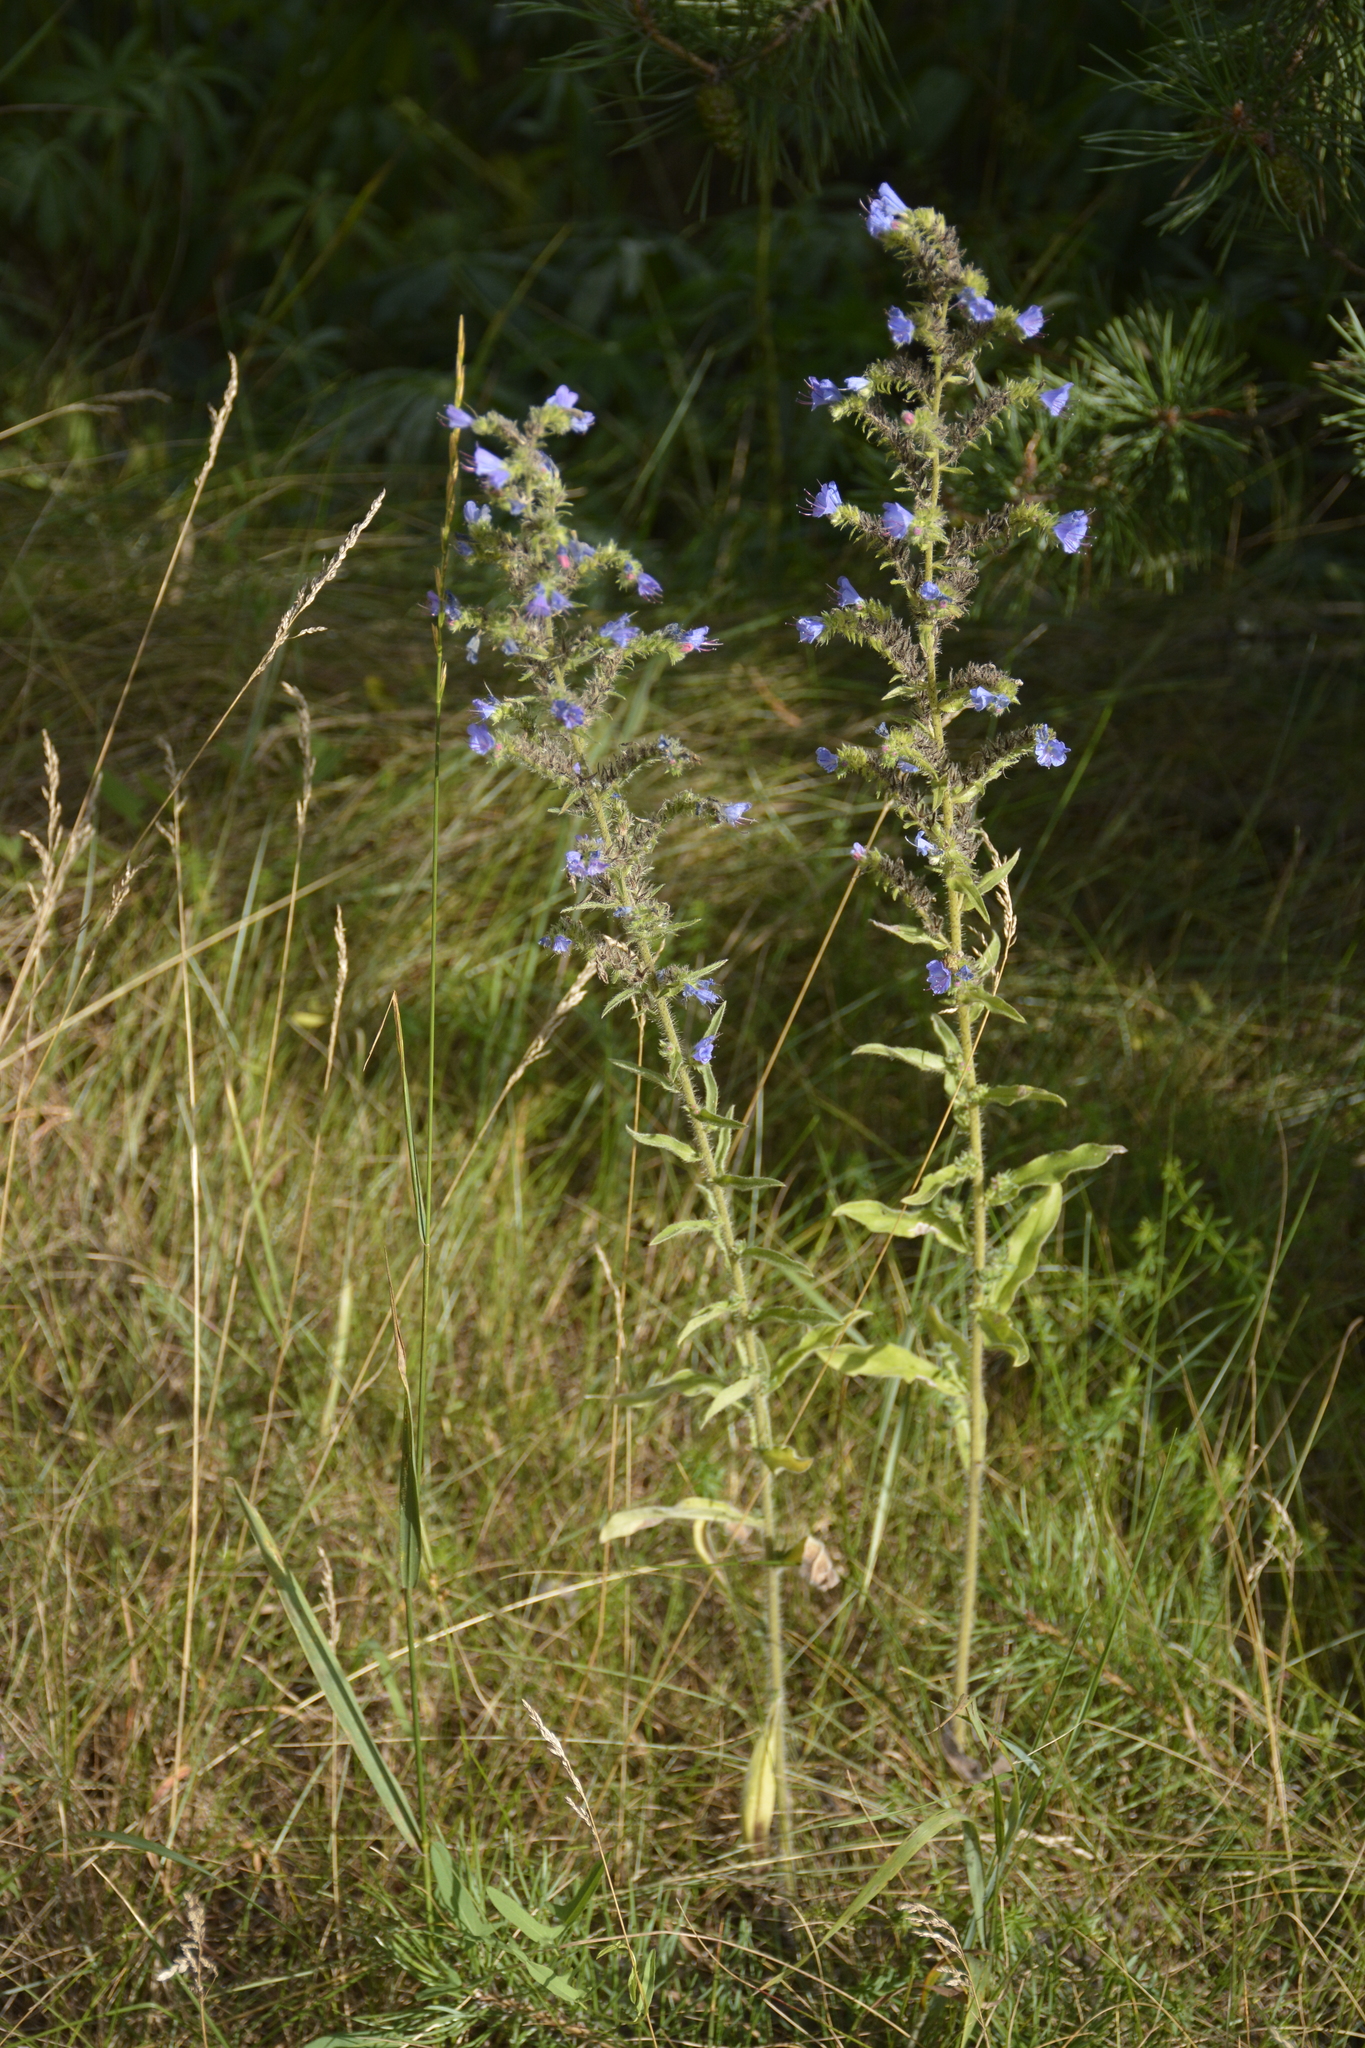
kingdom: Plantae
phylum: Tracheophyta
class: Magnoliopsida
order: Boraginales
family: Boraginaceae
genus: Echium
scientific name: Echium vulgare
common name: Common viper's bugloss
